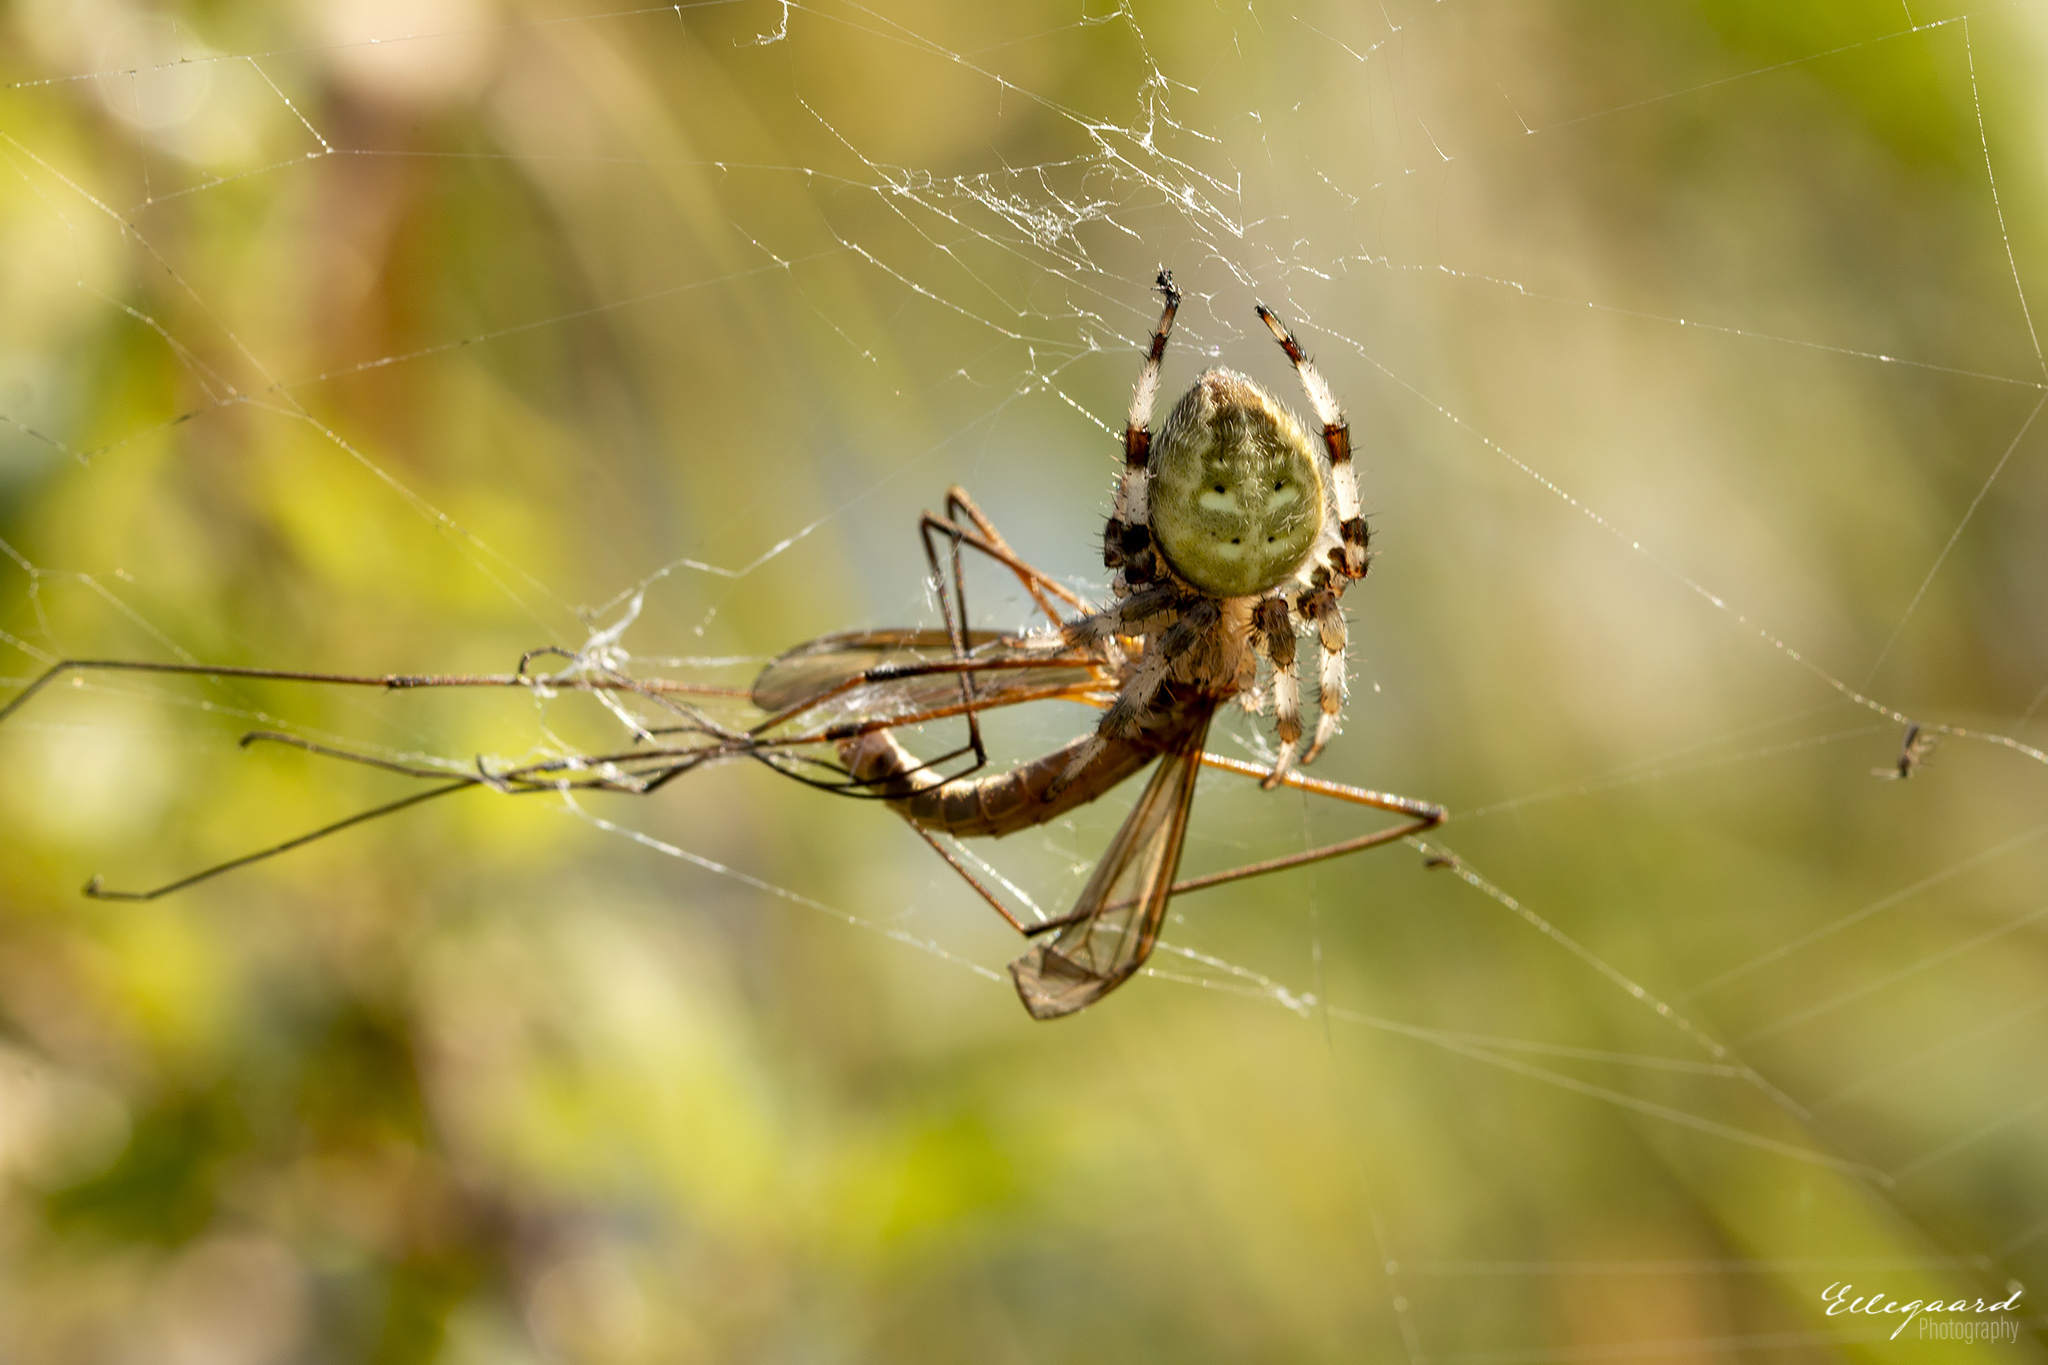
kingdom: Animalia
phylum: Arthropoda
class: Arachnida
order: Araneae
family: Araneidae
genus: Araneus
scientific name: Araneus quadratus
